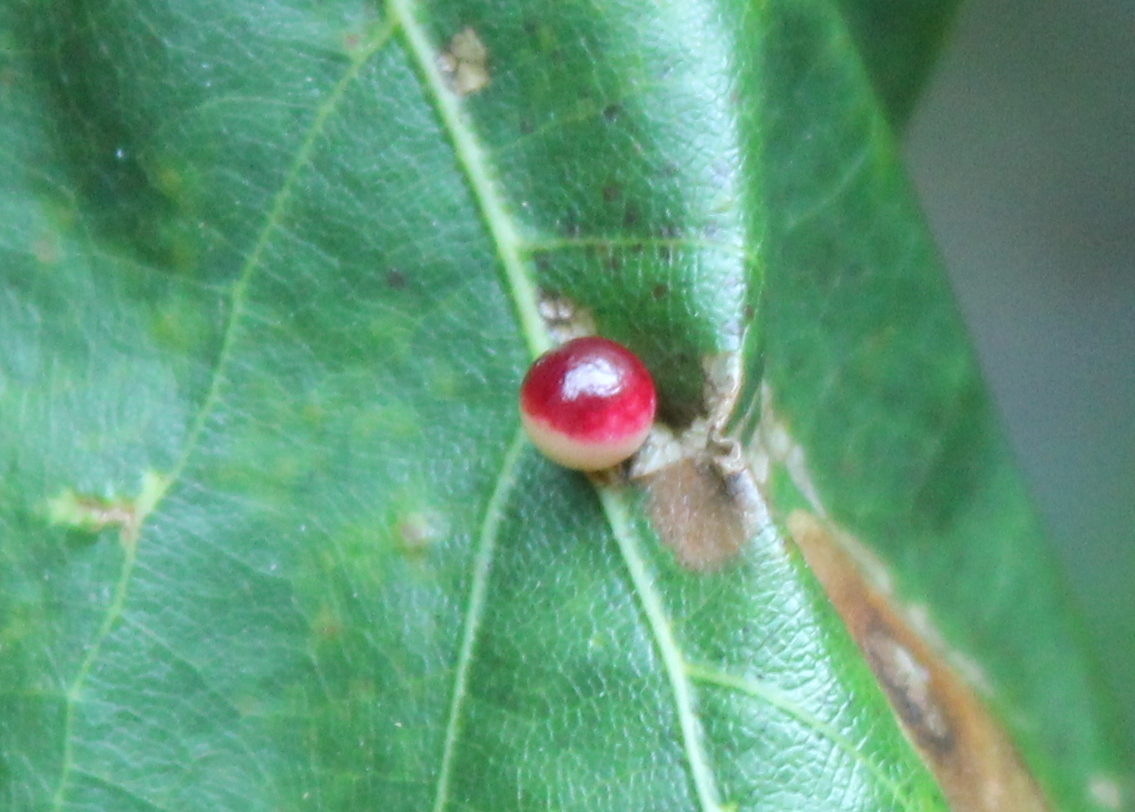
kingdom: Animalia
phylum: Arthropoda
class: Insecta
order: Hymenoptera
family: Cynipidae
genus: Zopheroteras
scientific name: Zopheroteras
